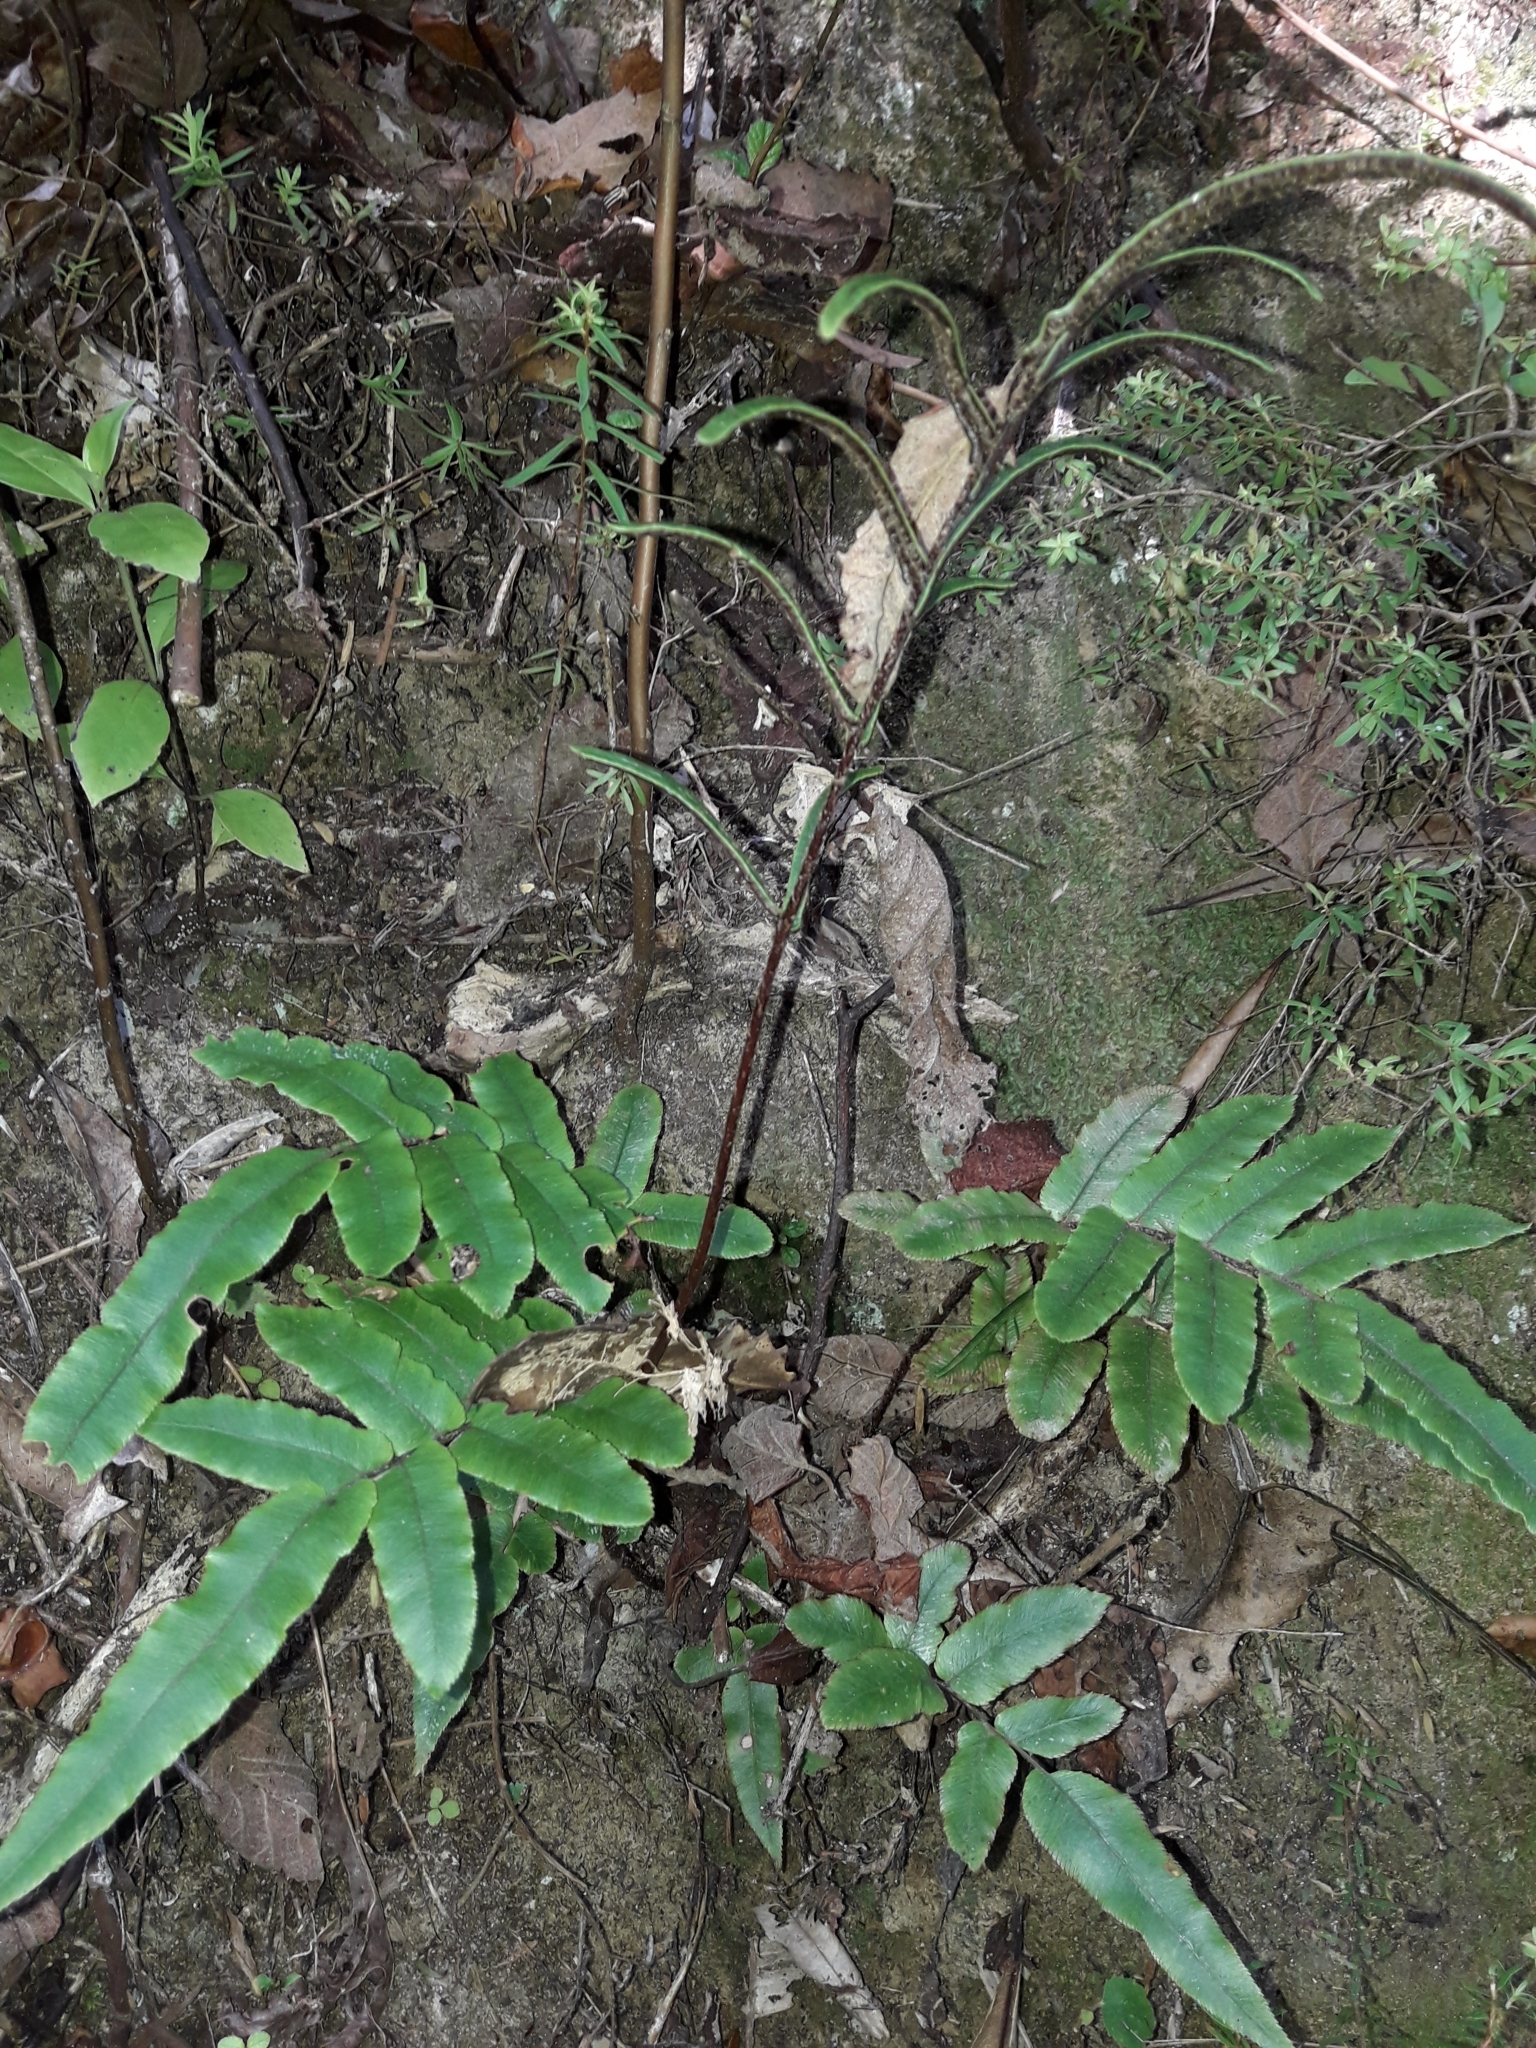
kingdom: Plantae
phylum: Tracheophyta
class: Polypodiopsida
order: Polypodiales
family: Blechnaceae
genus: Parablechnum
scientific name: Parablechnum procerum
